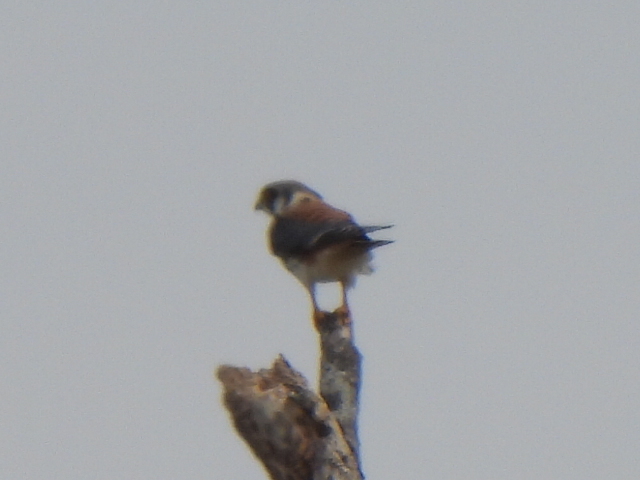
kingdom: Animalia
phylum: Chordata
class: Aves
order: Falconiformes
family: Falconidae
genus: Falco
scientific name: Falco sparverius
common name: American kestrel
